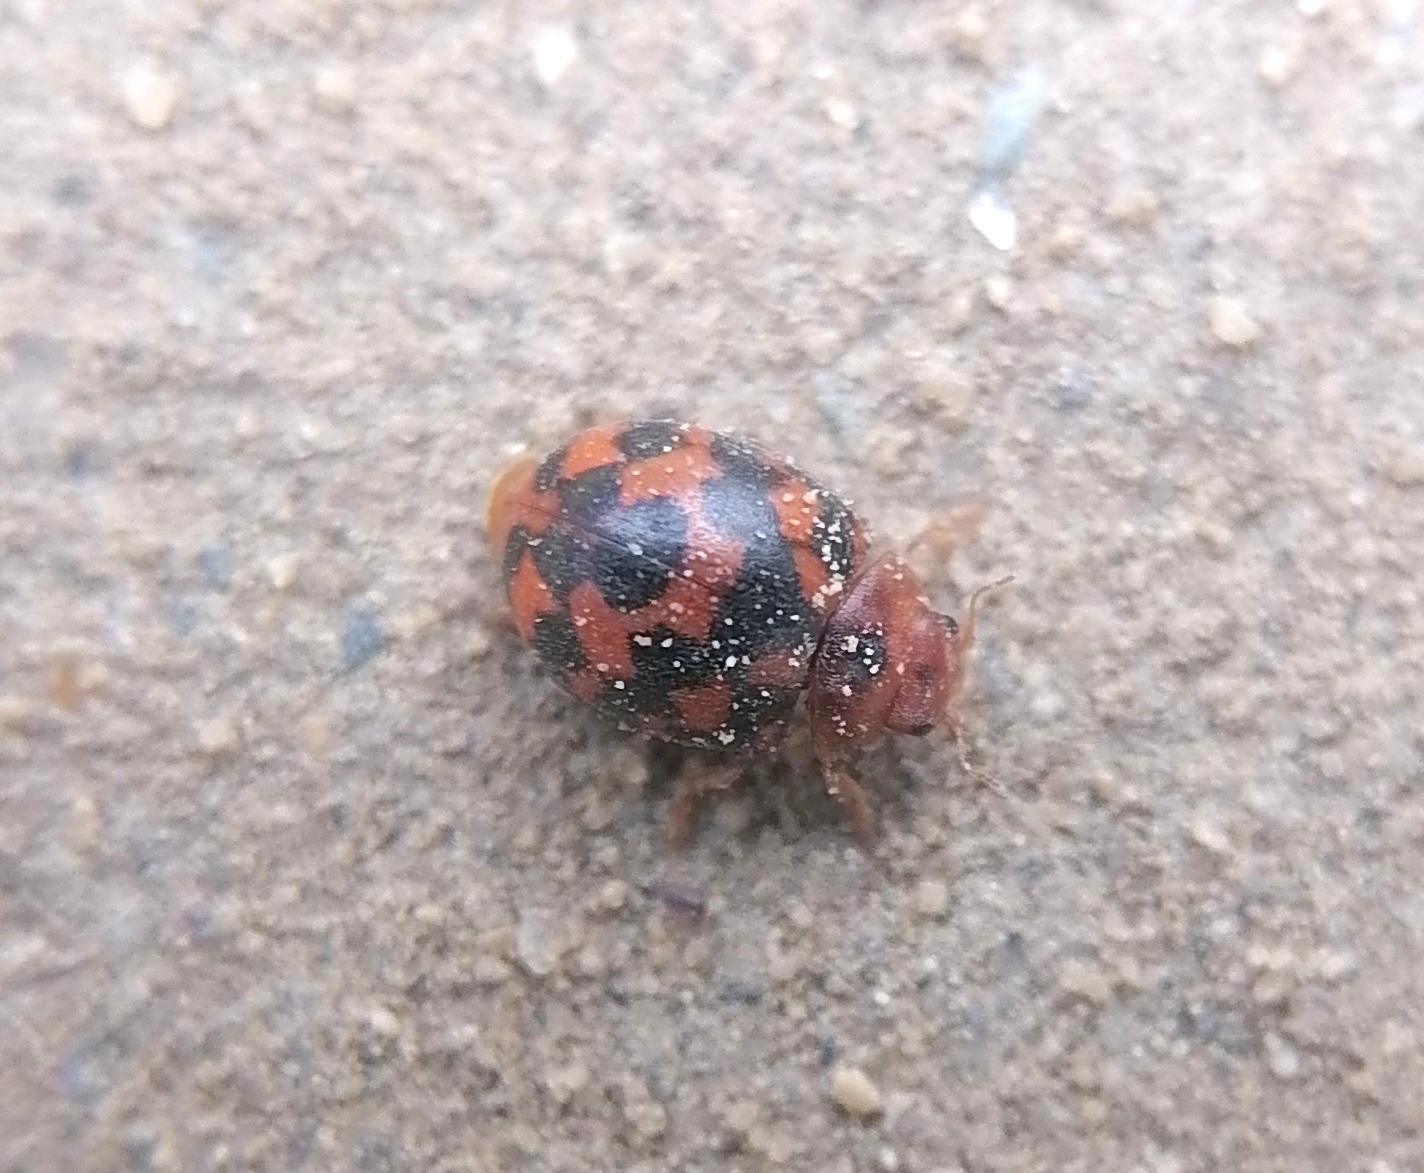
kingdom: Animalia
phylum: Arthropoda
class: Insecta
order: Coleoptera
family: Coccinellidae
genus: Subcoccinella
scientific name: Subcoccinella vigintiquatuorpunctata
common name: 24-spot ladybird
